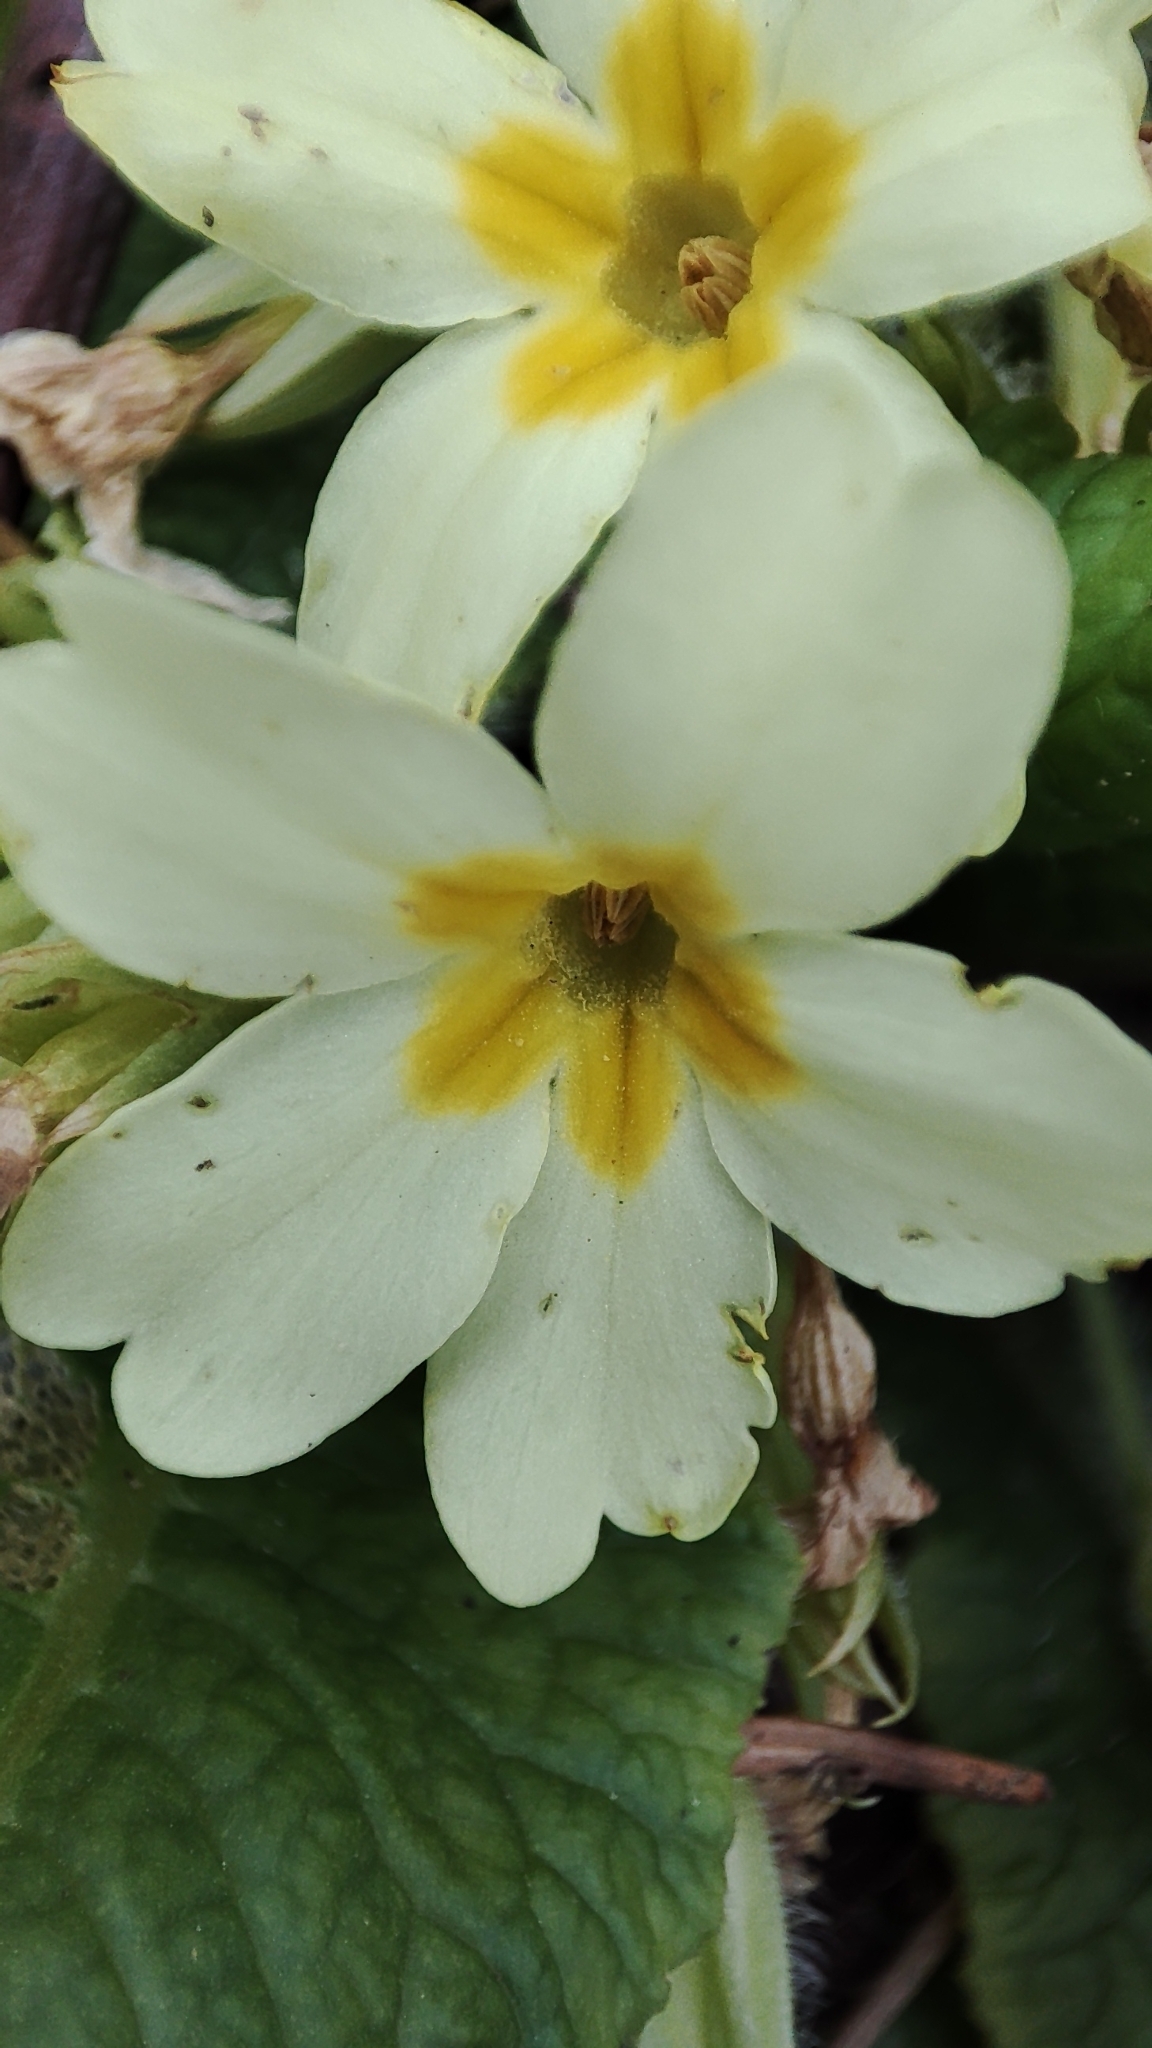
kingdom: Plantae
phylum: Tracheophyta
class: Magnoliopsida
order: Ericales
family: Primulaceae
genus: Primula
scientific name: Primula vulgaris
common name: Primrose
